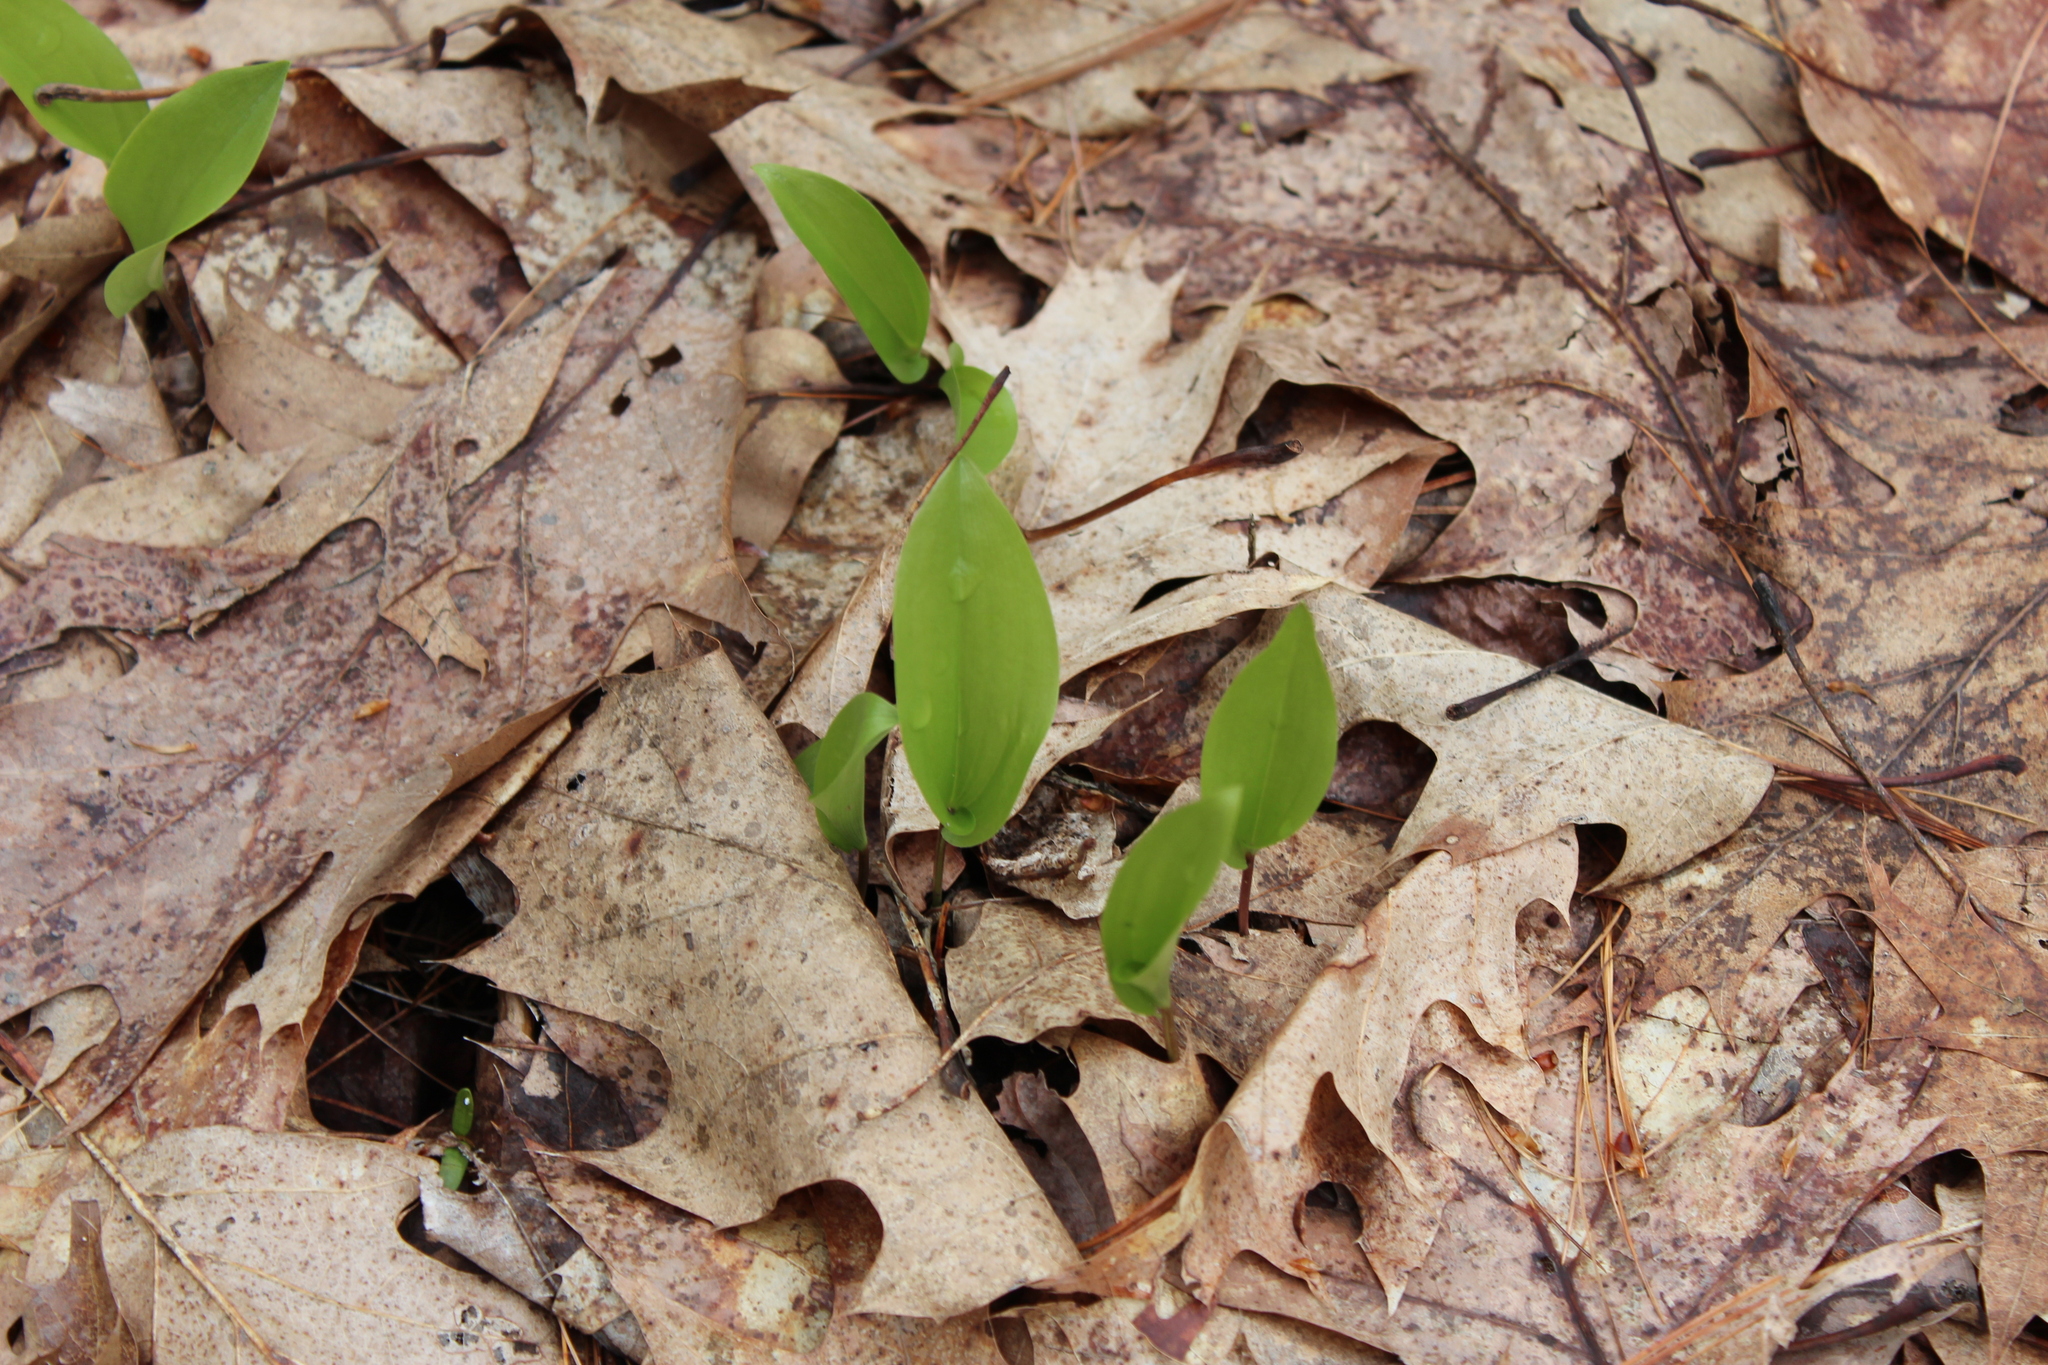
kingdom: Plantae
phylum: Tracheophyta
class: Liliopsida
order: Asparagales
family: Asparagaceae
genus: Maianthemum
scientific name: Maianthemum canadense
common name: False lily-of-the-valley
